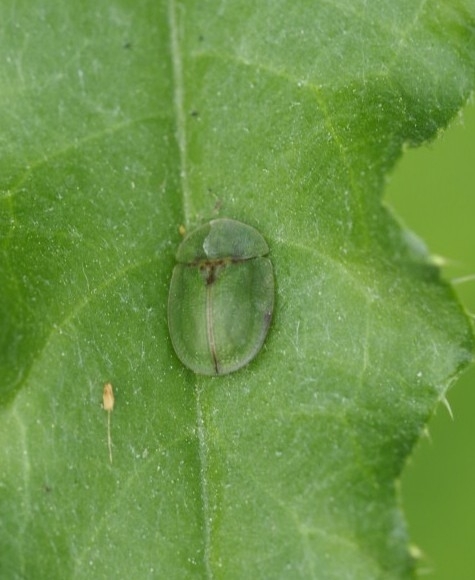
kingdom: Animalia
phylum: Arthropoda
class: Insecta
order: Coleoptera
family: Chrysomelidae
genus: Cassida
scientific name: Cassida rubiginosa
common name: Thistle tortoise beetle
